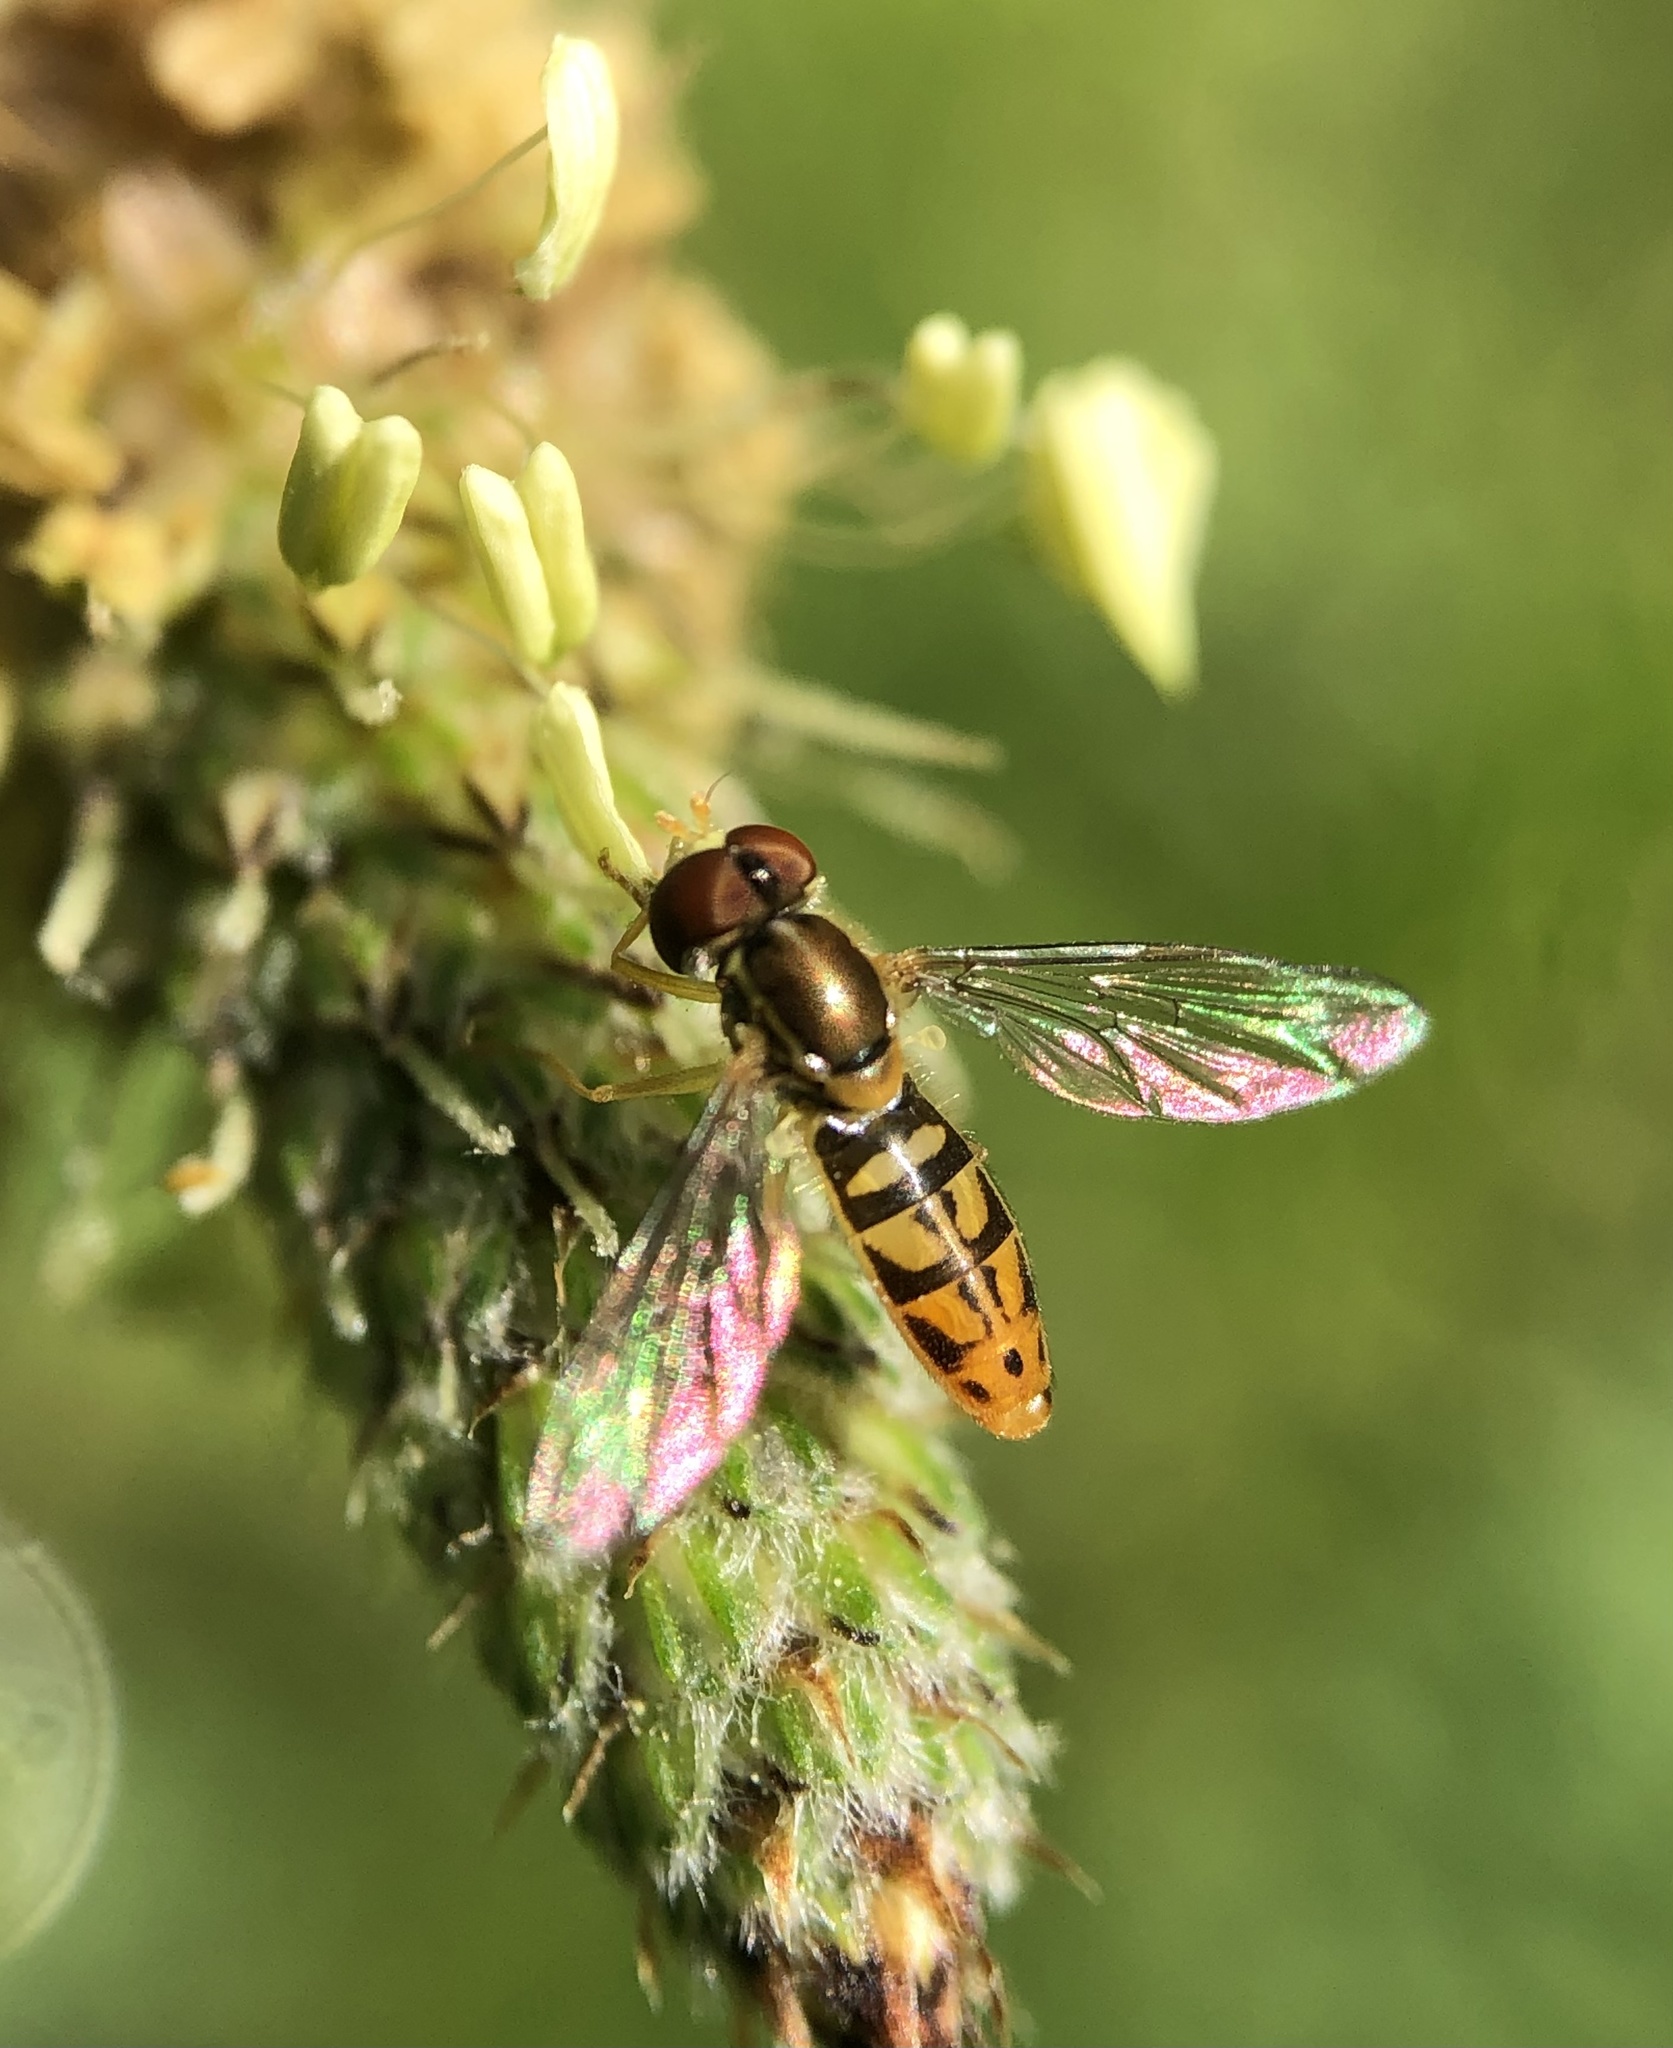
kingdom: Animalia
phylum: Arthropoda
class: Insecta
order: Diptera
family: Syrphidae
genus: Toxomerus
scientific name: Toxomerus marginatus
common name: Syrphid fly
